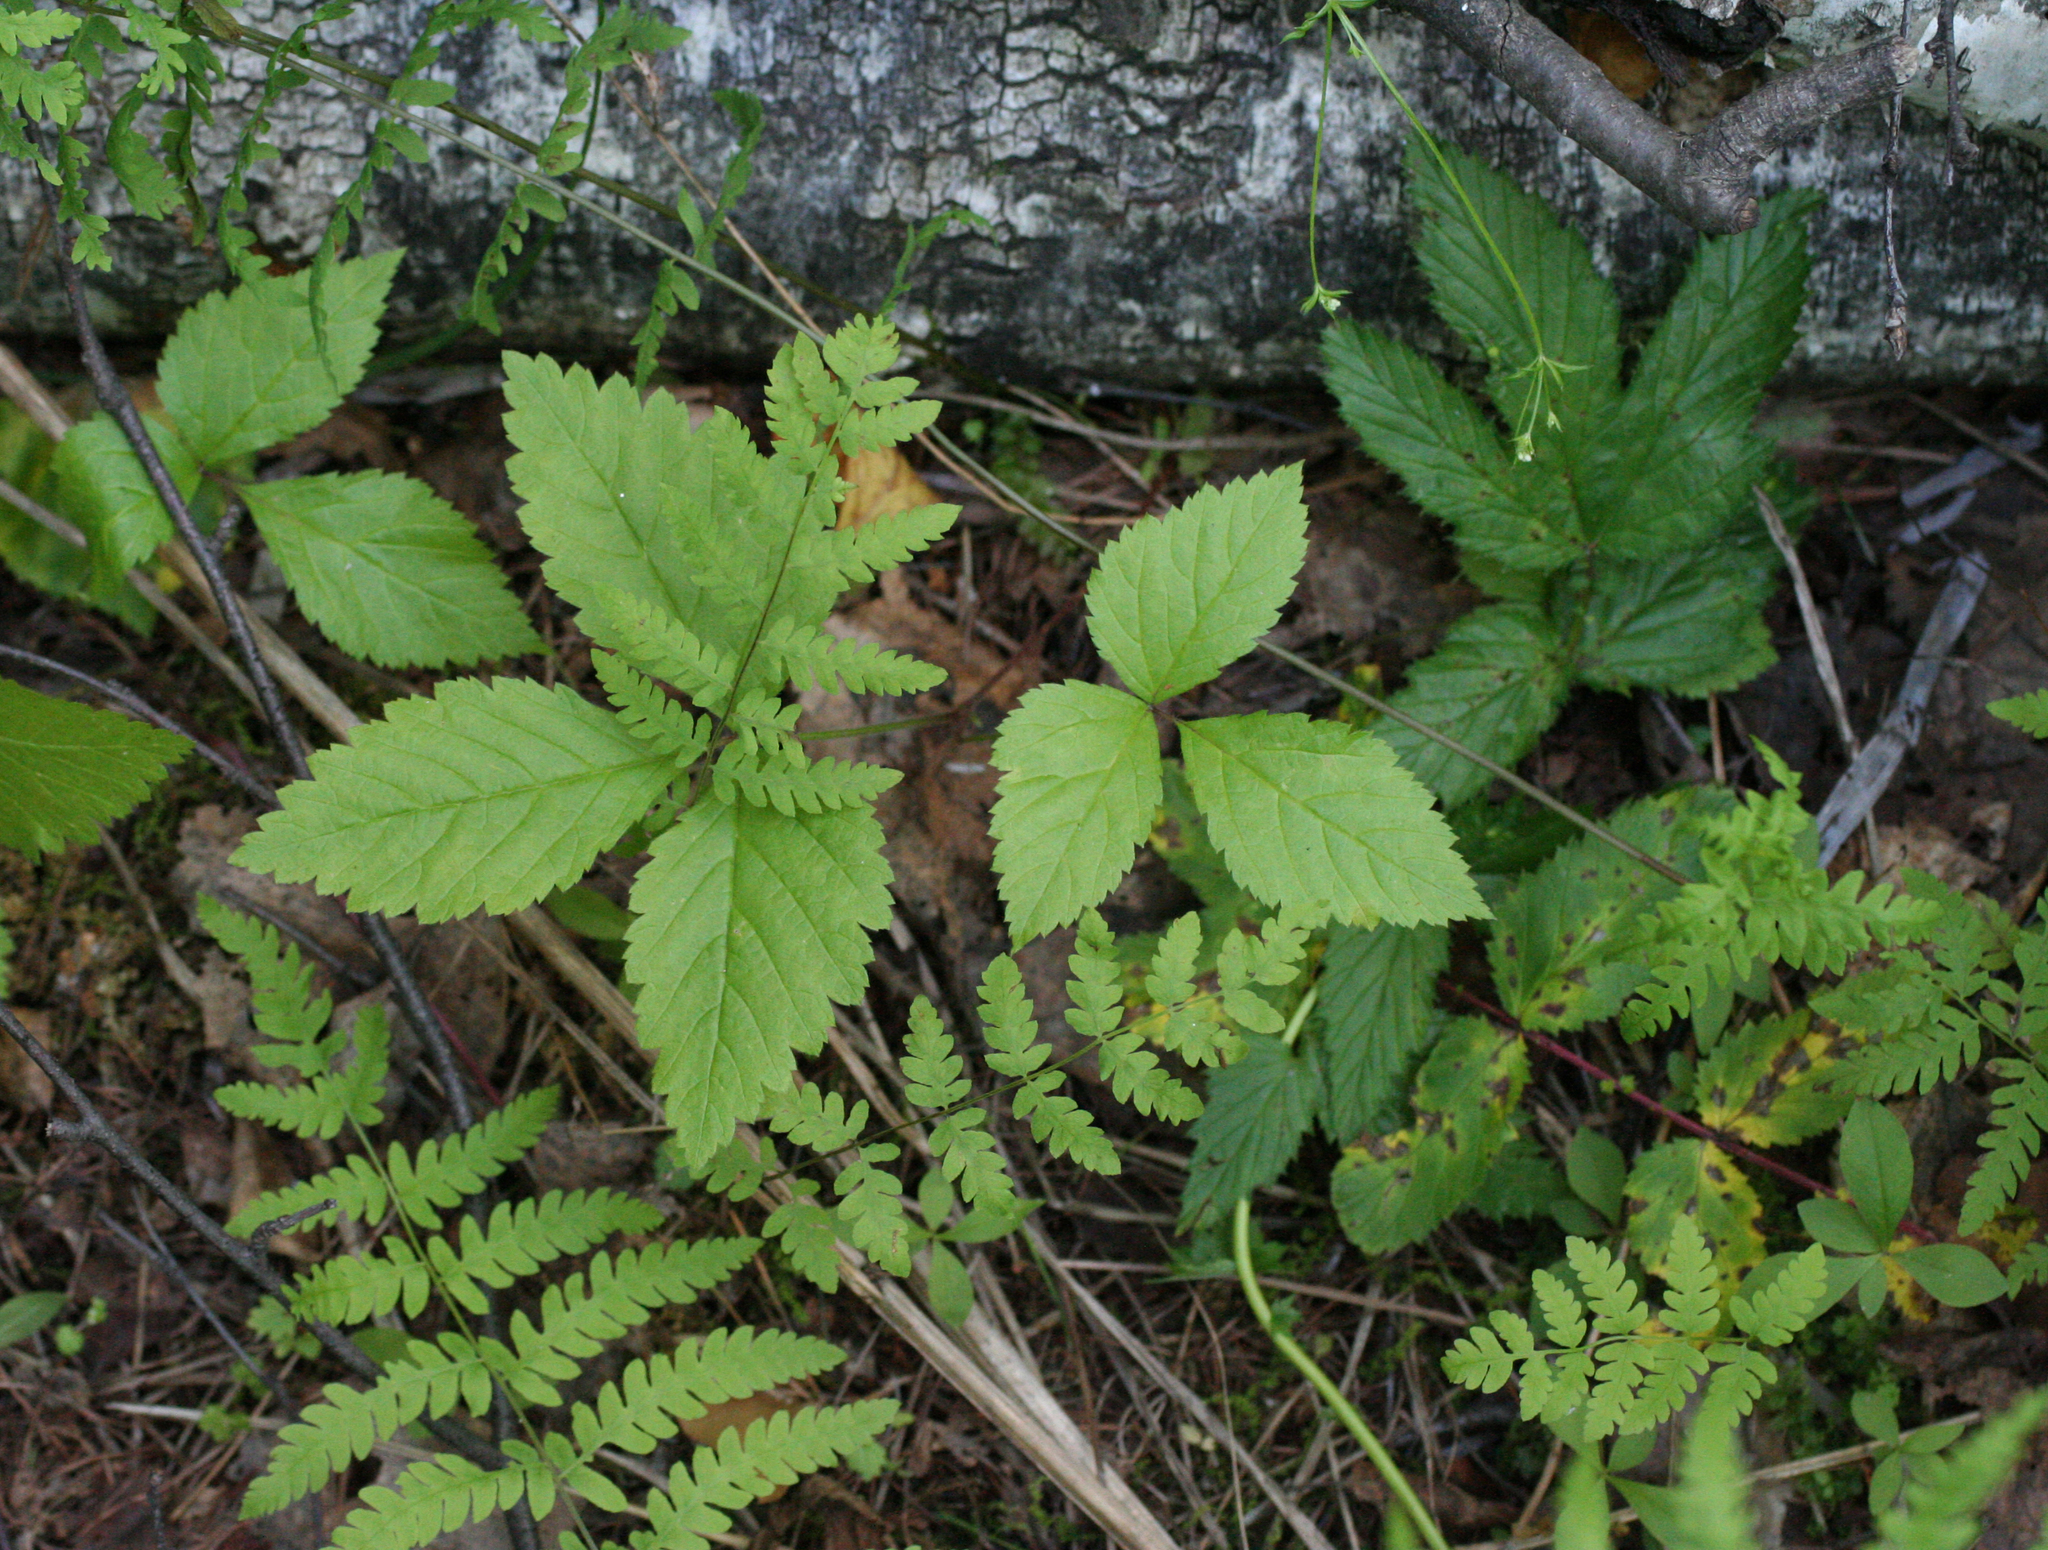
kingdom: Plantae
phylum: Tracheophyta
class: Magnoliopsida
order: Rosales
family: Rosaceae
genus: Rubus
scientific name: Rubus saxatilis
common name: Stone bramble
